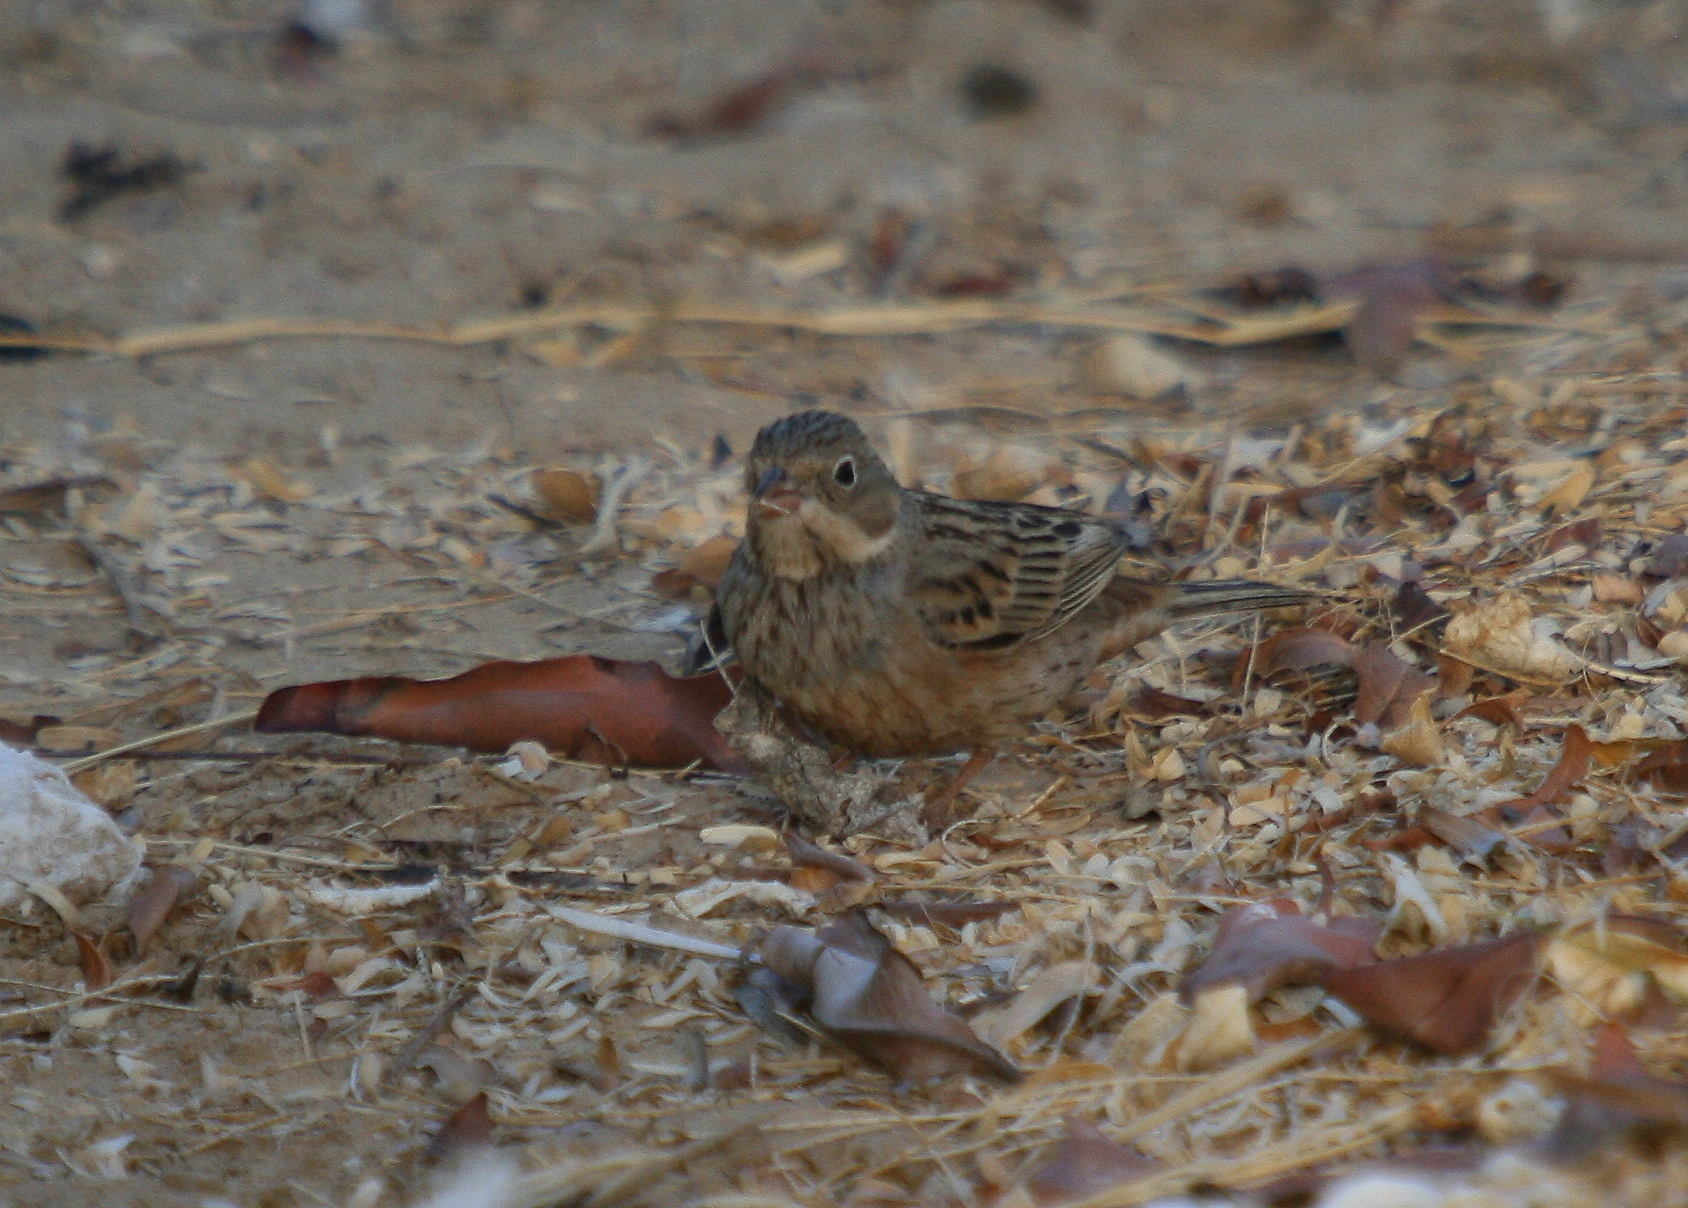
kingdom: Animalia
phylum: Chordata
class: Aves
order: Passeriformes
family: Emberizidae
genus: Emberiza
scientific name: Emberiza caesia
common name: Cretzschmar's bunting
